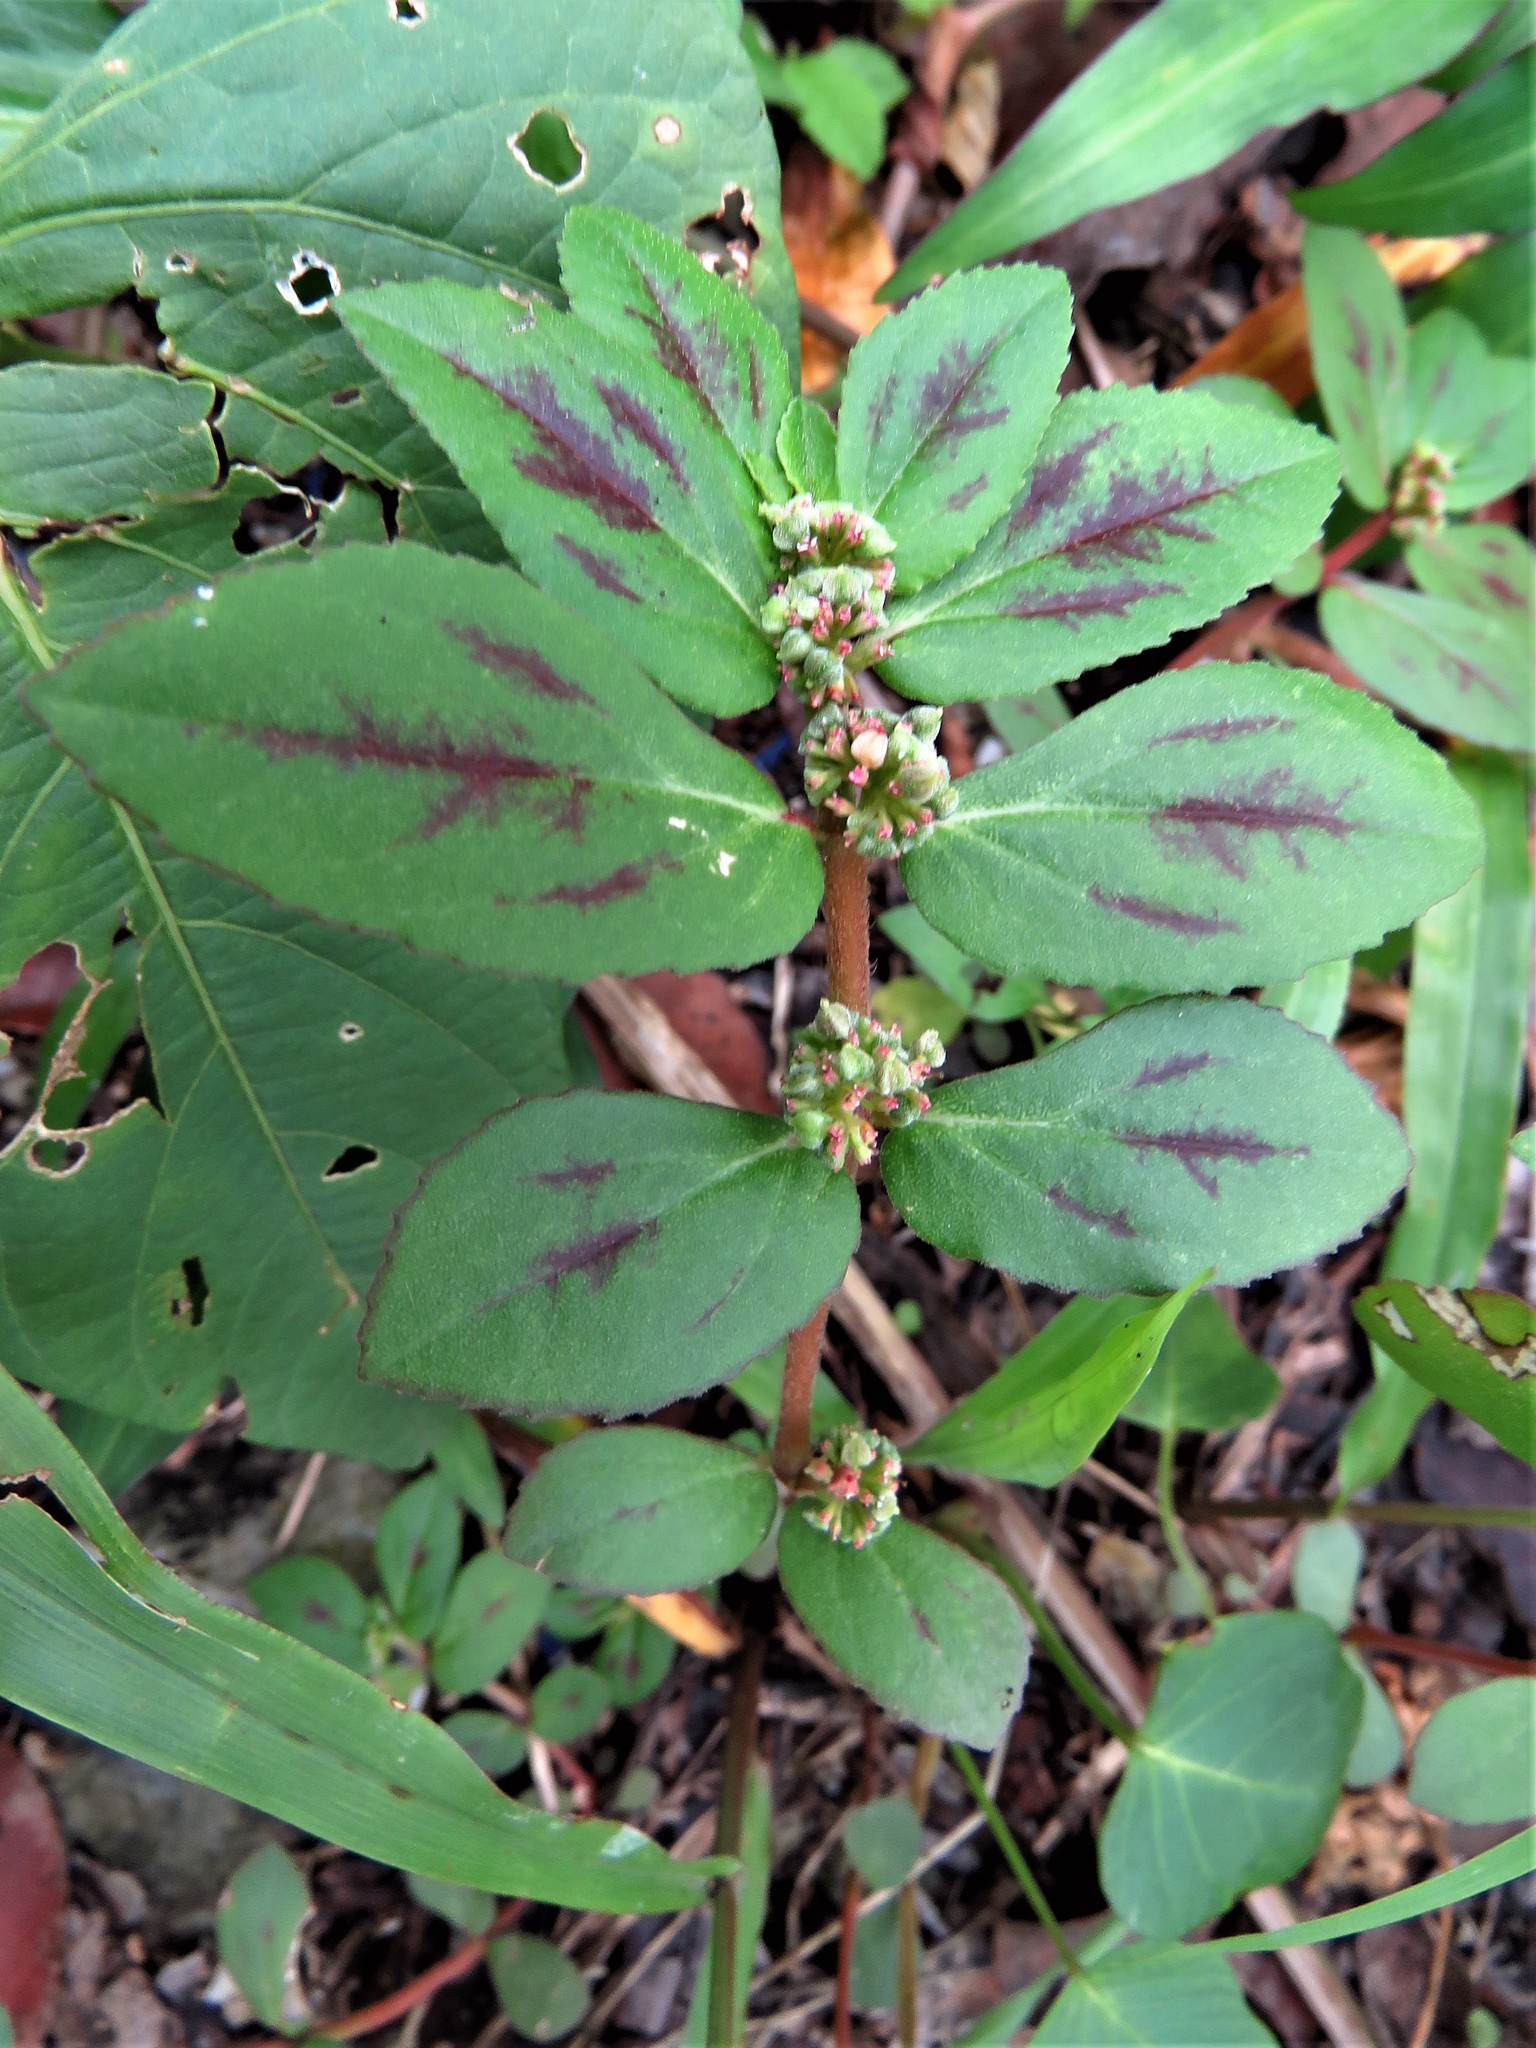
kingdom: Plantae
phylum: Tracheophyta
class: Magnoliopsida
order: Malpighiales
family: Euphorbiaceae
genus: Euphorbia
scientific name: Euphorbia hirta
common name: Pillpod sandmat
